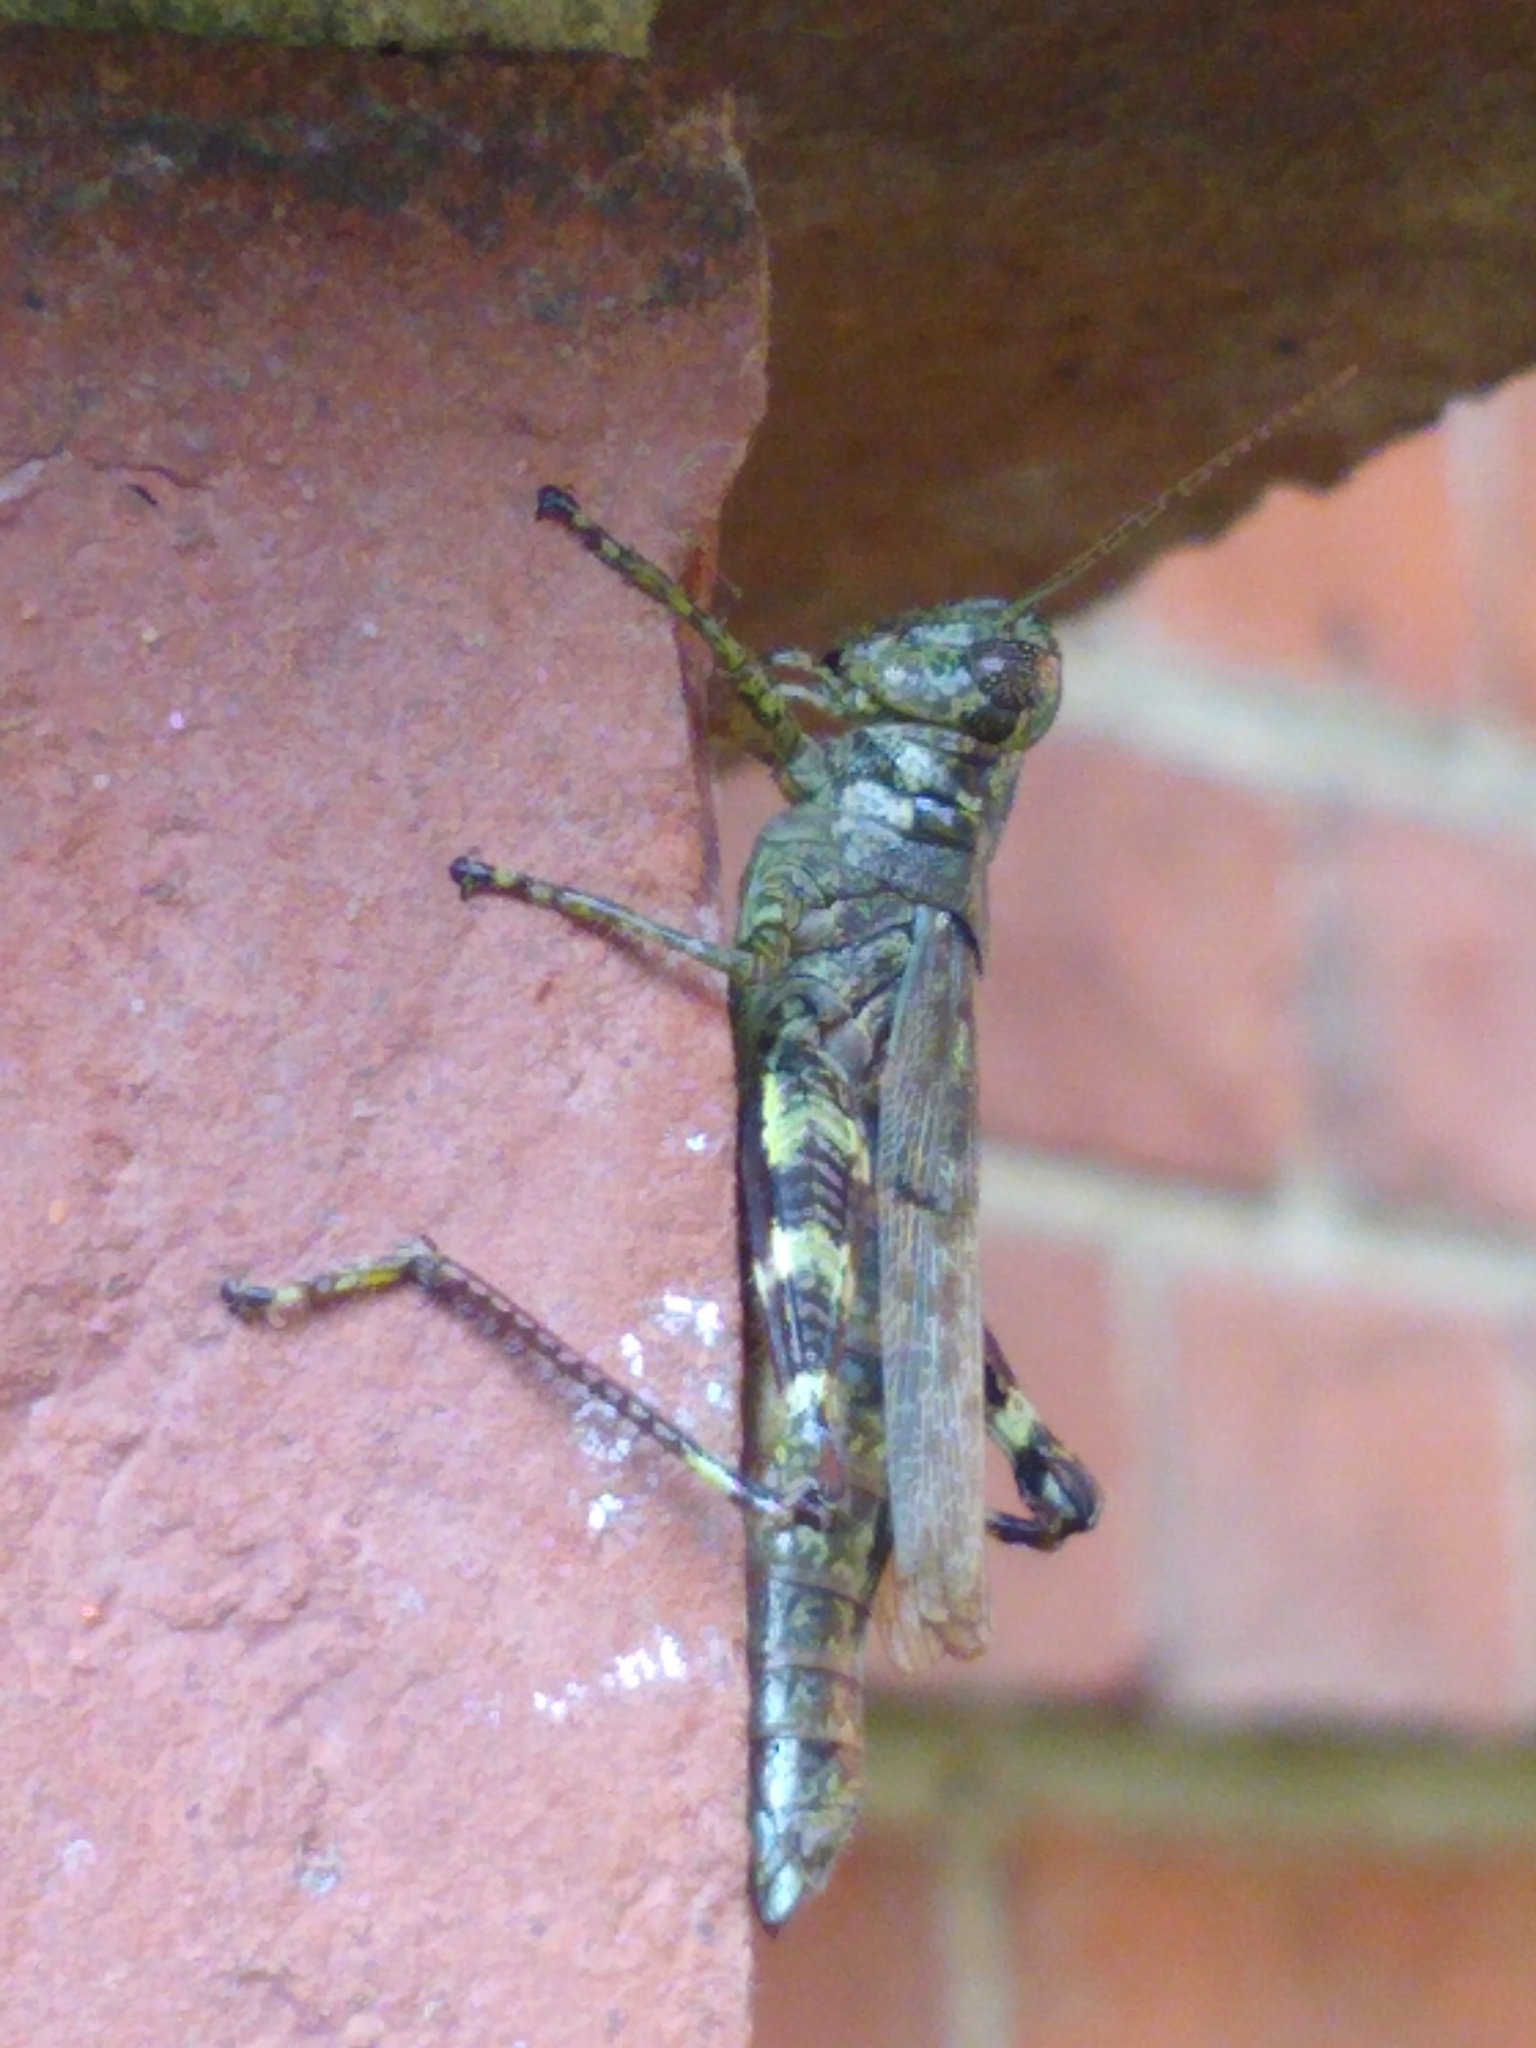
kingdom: Animalia
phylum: Arthropoda
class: Insecta
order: Orthoptera
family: Acrididae
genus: Melanoplus
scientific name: Melanoplus punctulatus
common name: Pine-tree spur-throat grasshopper
